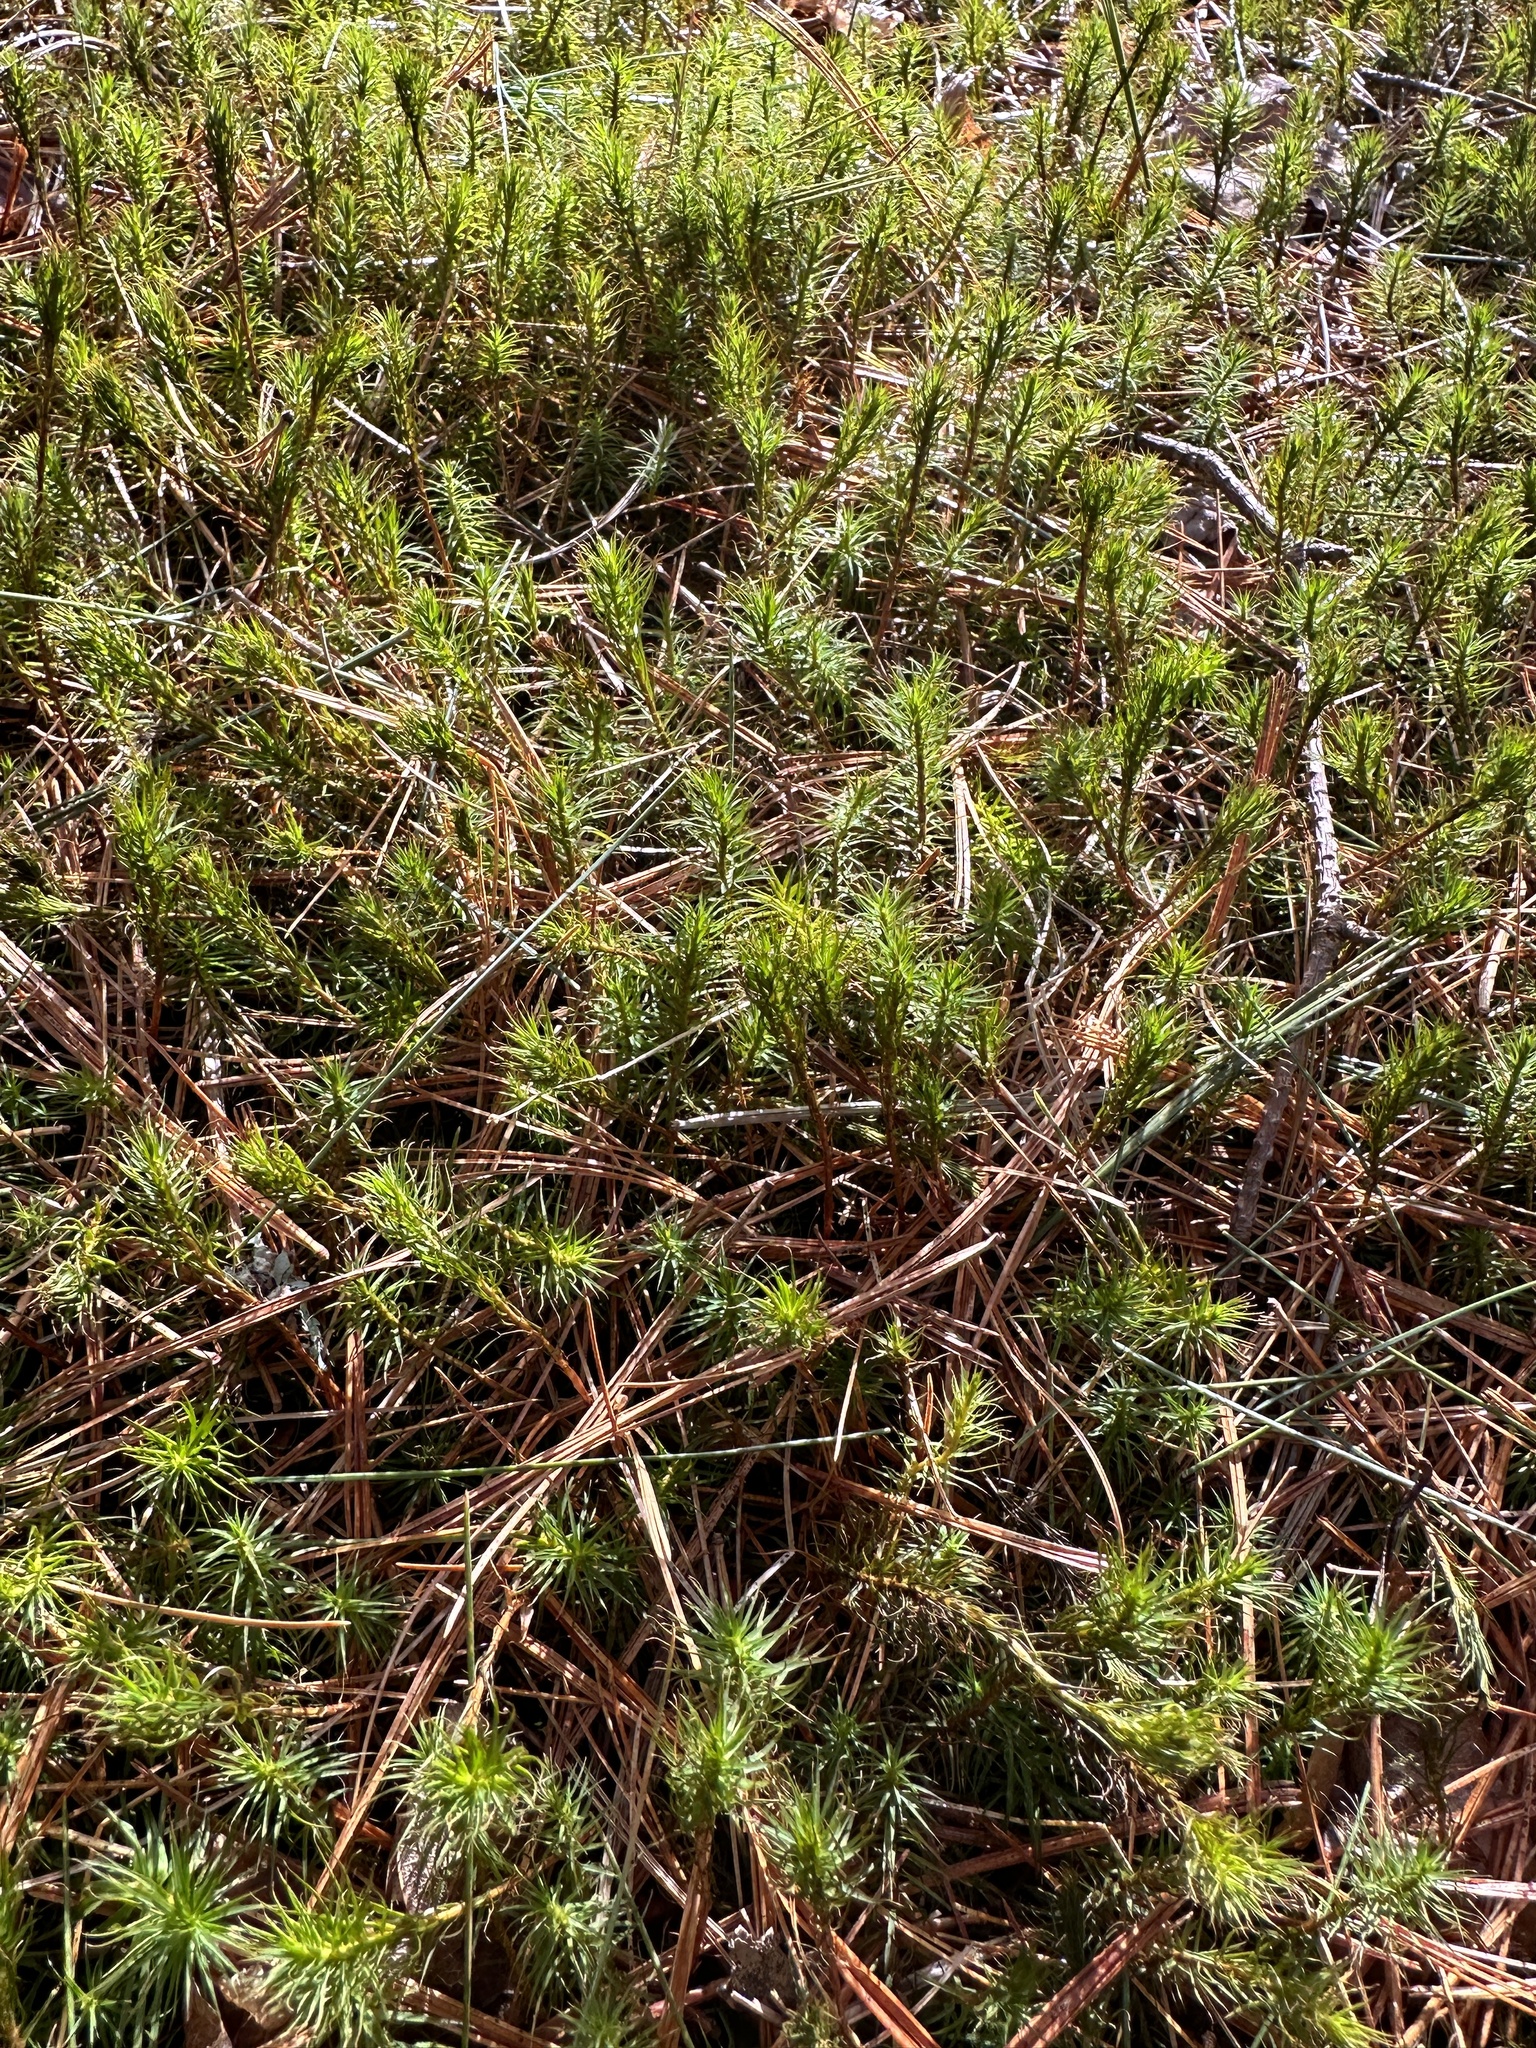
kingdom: Plantae
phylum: Bryophyta
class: Polytrichopsida
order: Polytrichales
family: Polytrichaceae
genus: Polytrichum
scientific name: Polytrichum commune
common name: Common haircap
